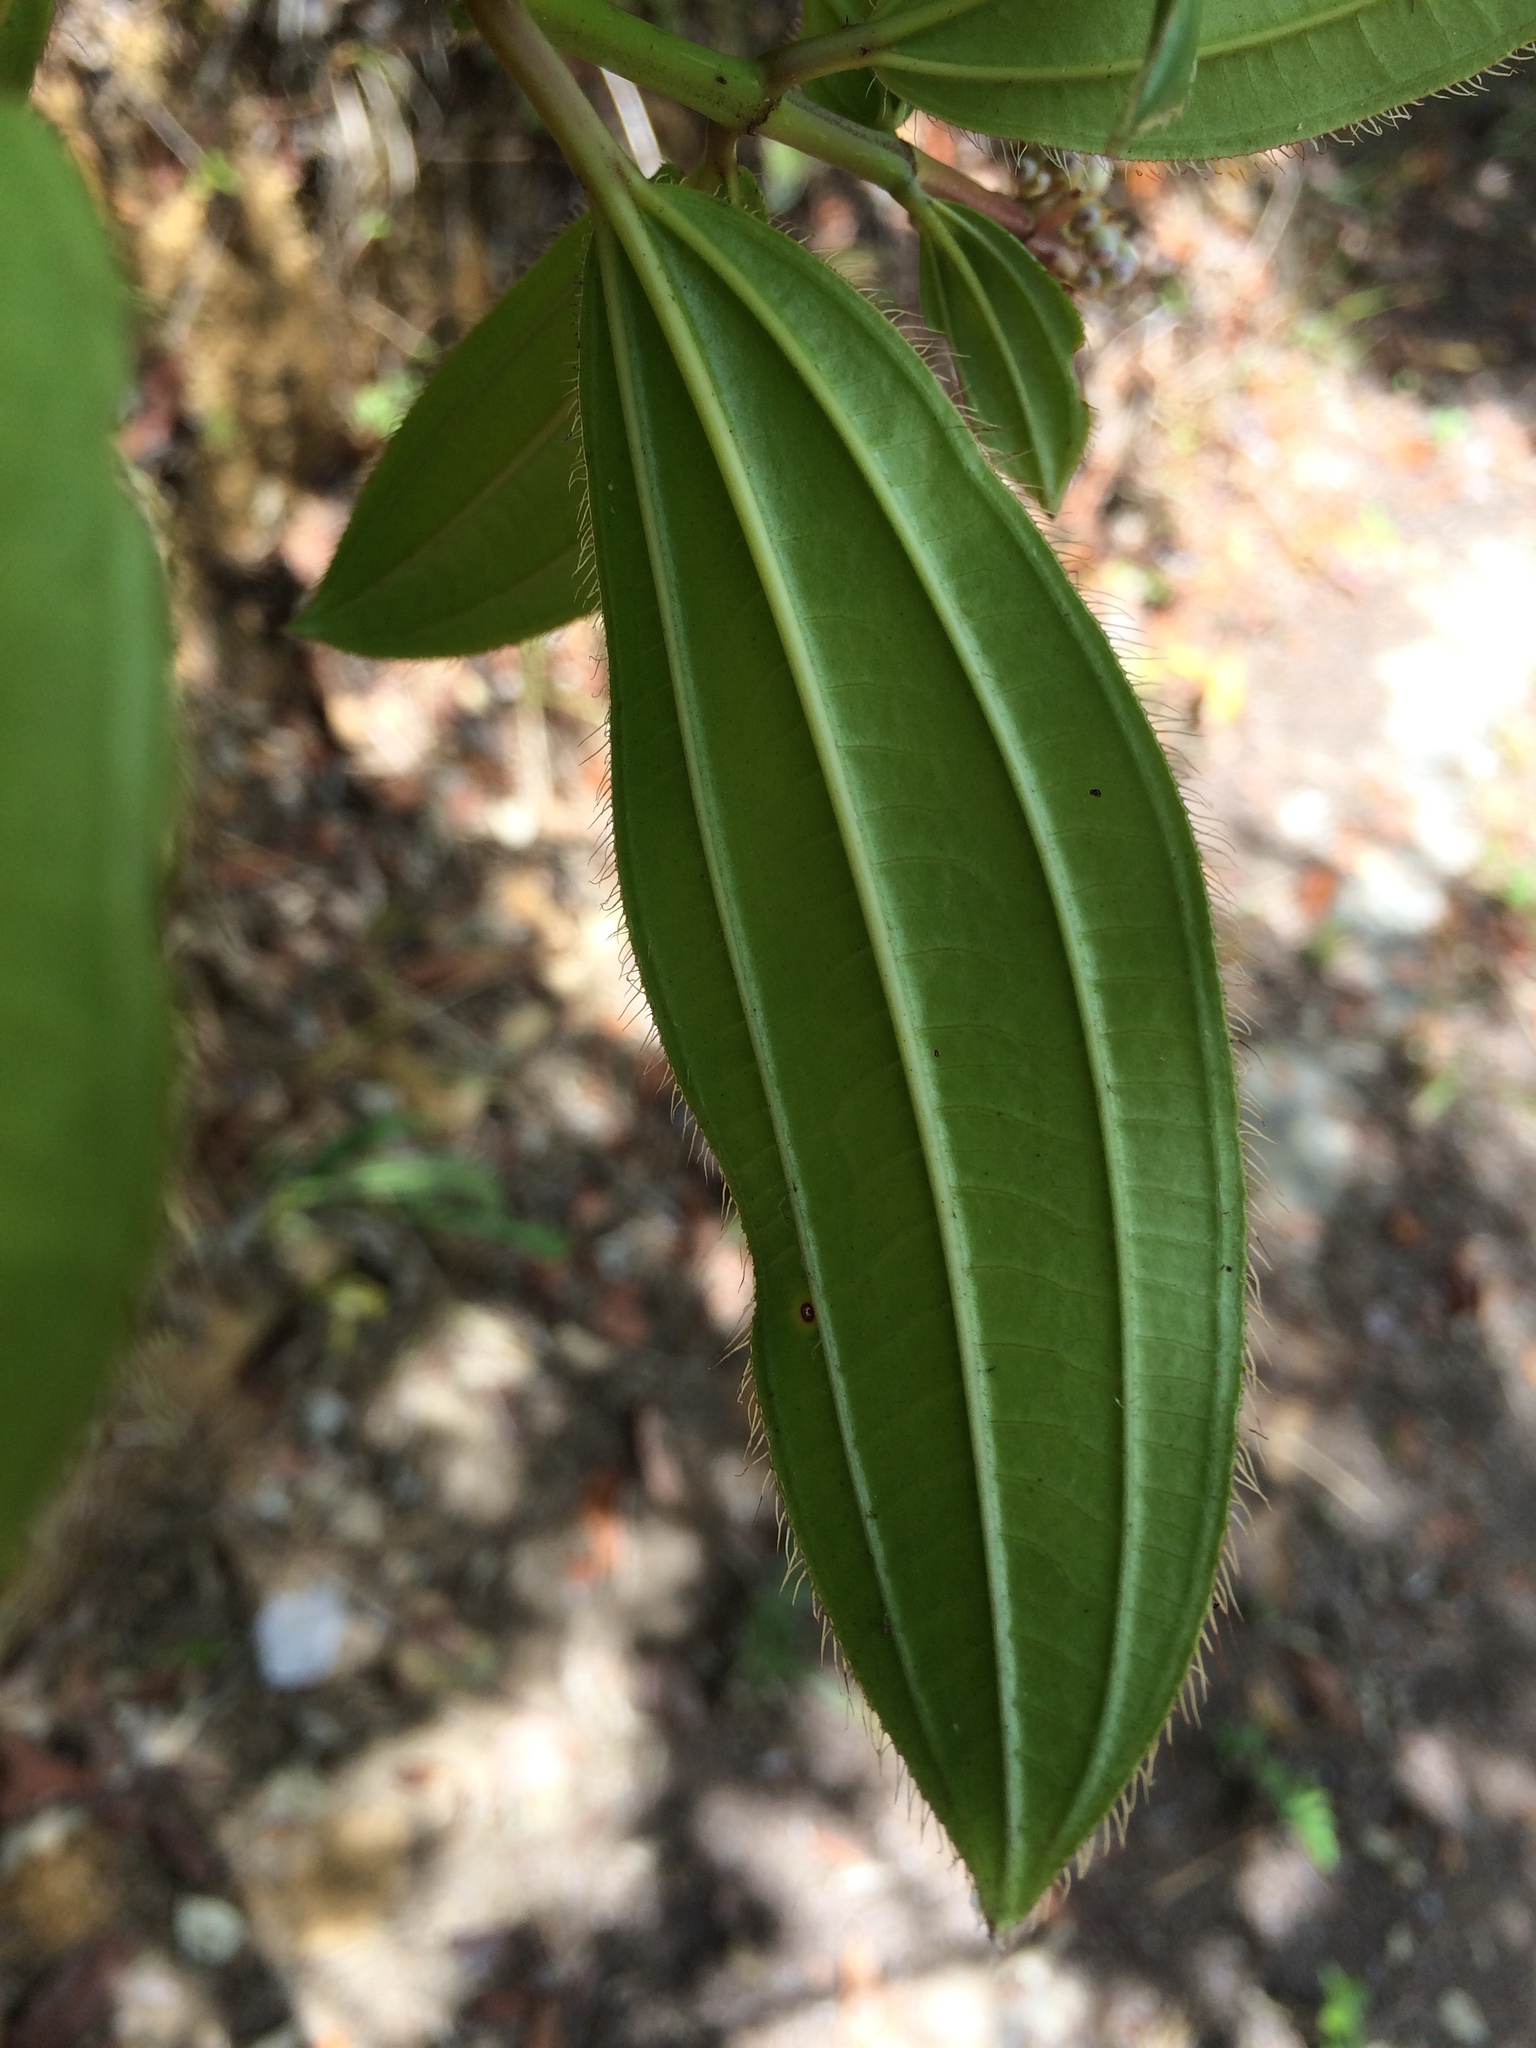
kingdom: Plantae
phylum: Tracheophyta
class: Magnoliopsida
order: Myrtales
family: Melastomataceae
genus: Miconia
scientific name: Miconia ciliata
